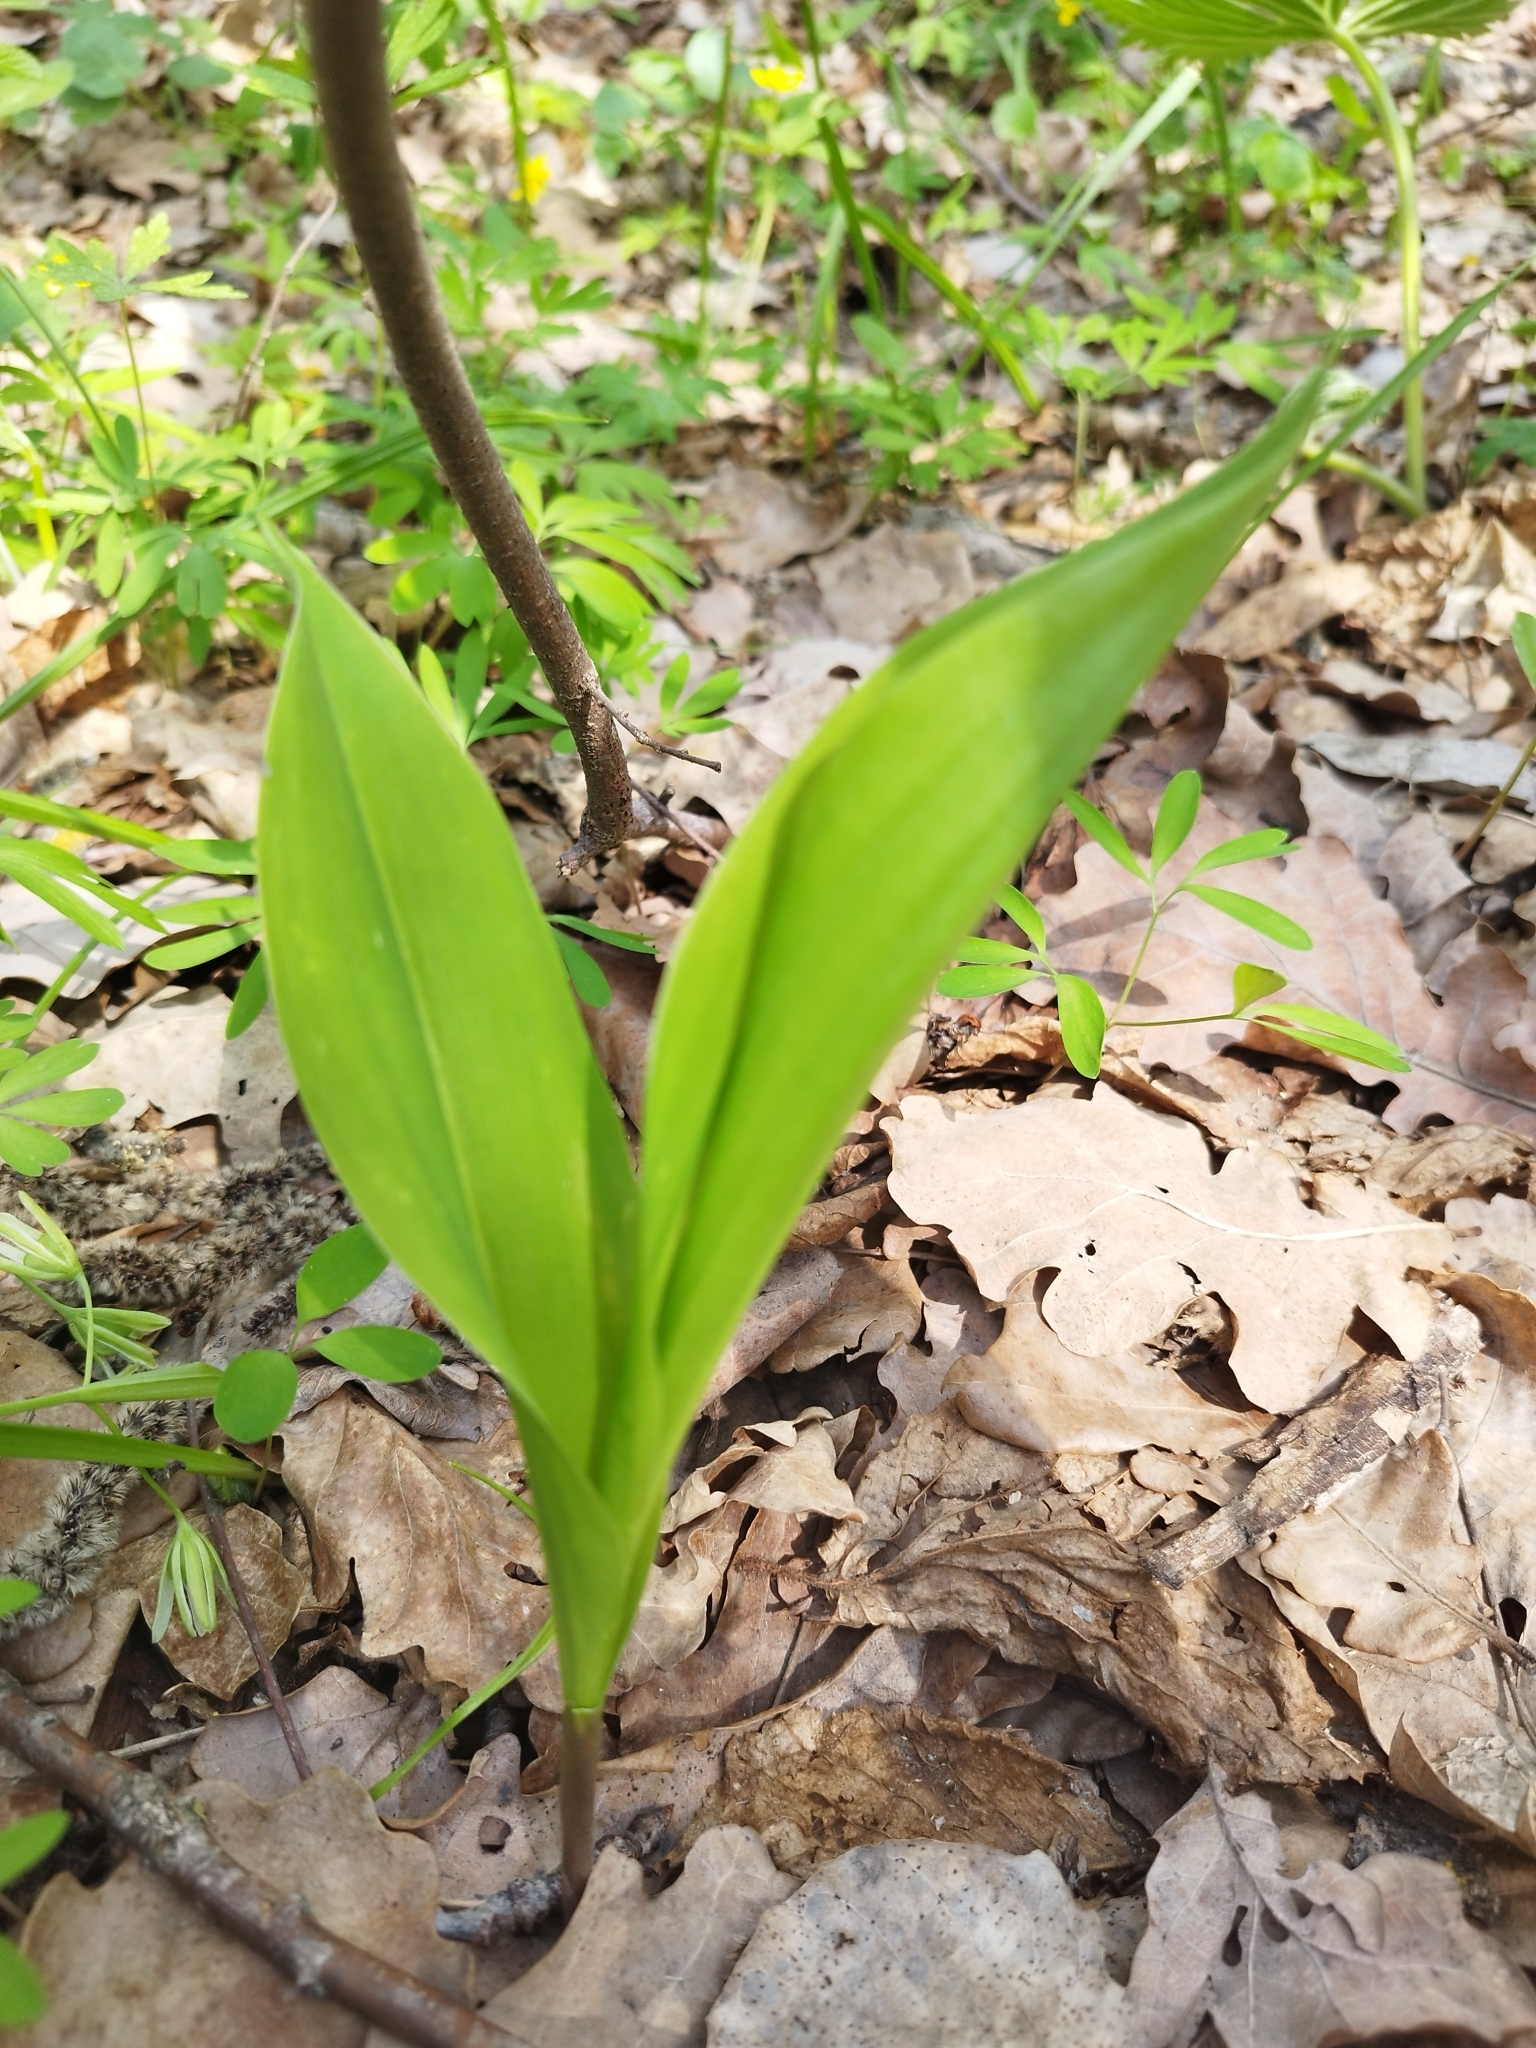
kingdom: Plantae
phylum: Tracheophyta
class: Liliopsida
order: Asparagales
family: Asparagaceae
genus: Convallaria
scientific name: Convallaria majalis
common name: Lily-of-the-valley
